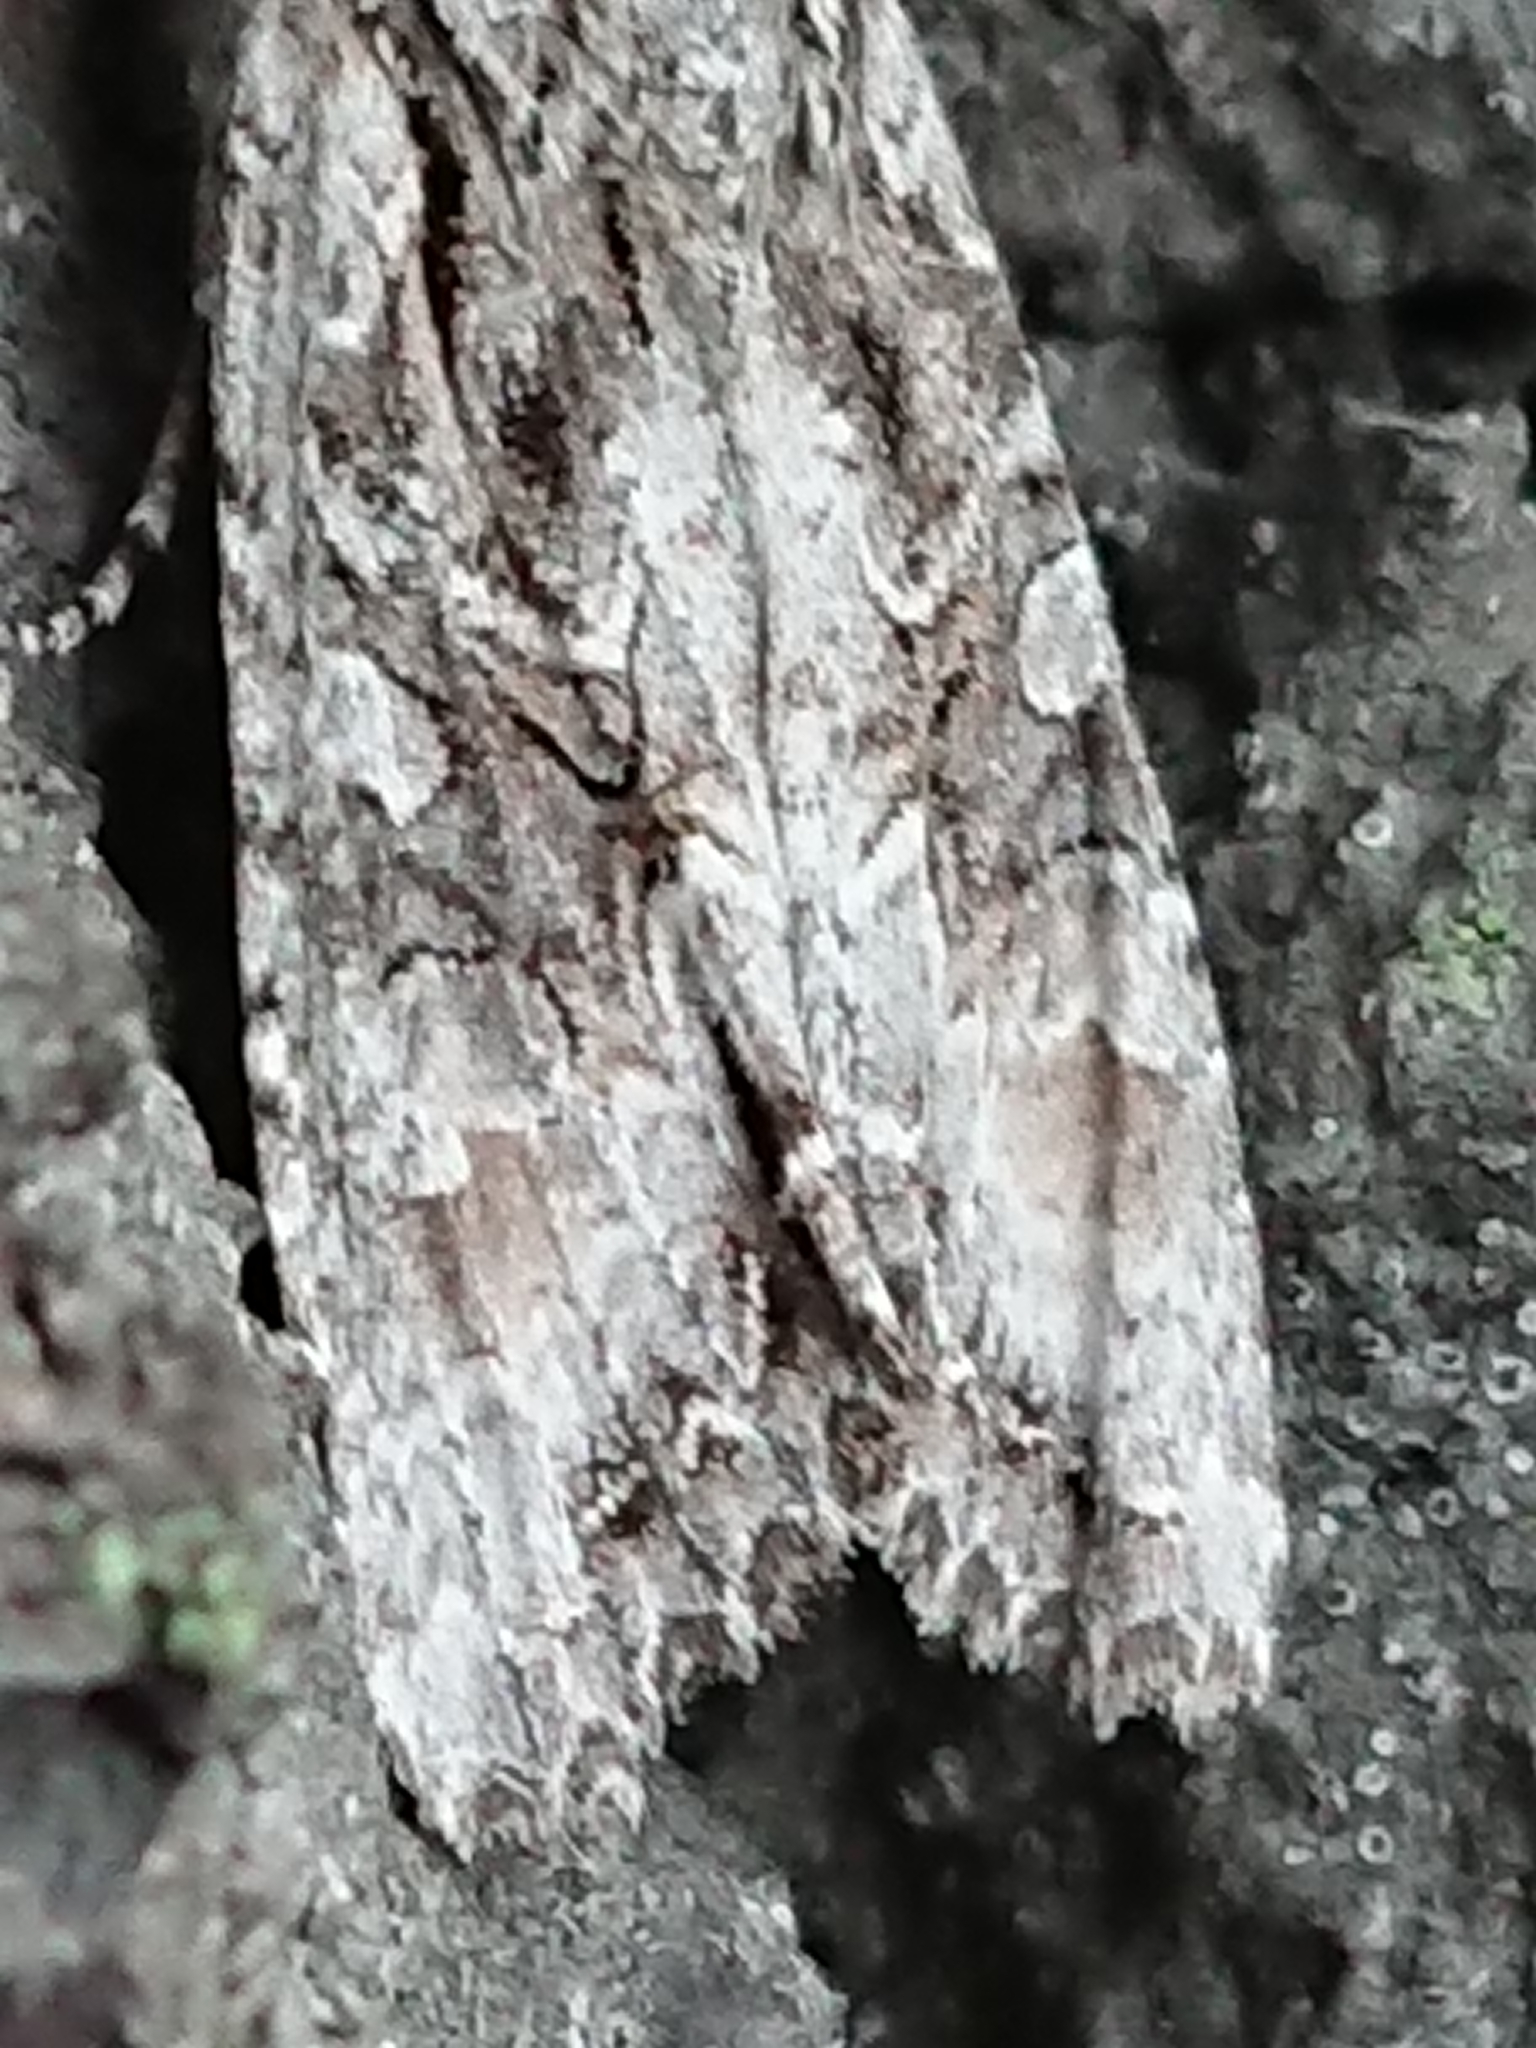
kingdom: Animalia
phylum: Arthropoda
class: Insecta
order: Lepidoptera
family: Noctuidae
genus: Ichneutica
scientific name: Ichneutica mutans
